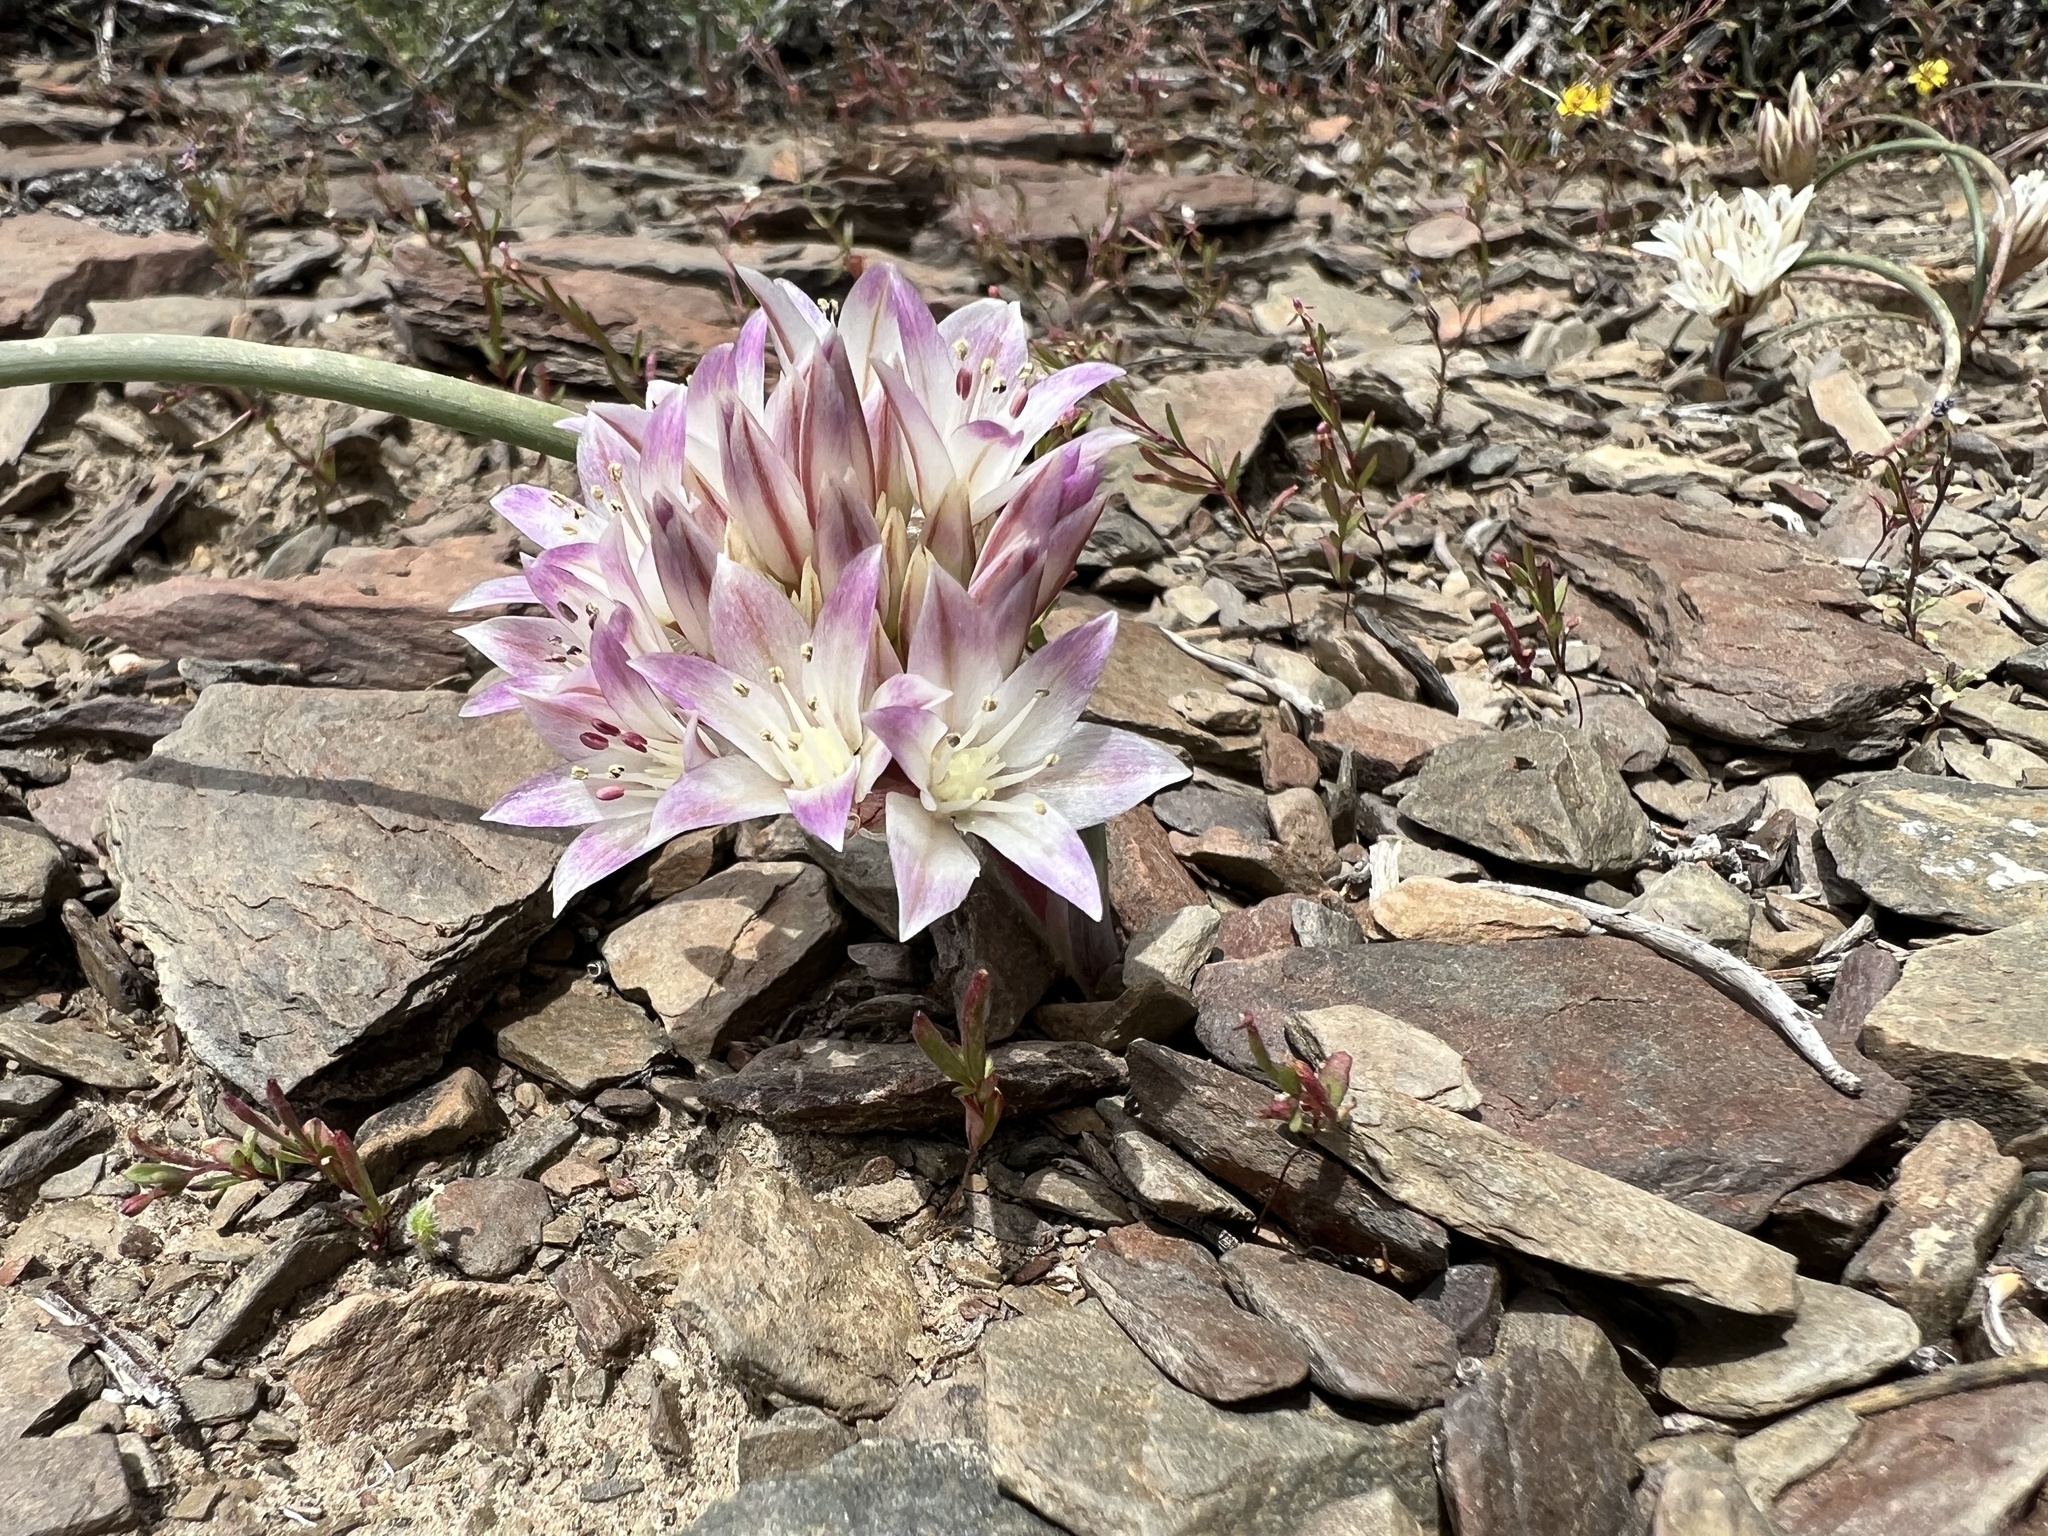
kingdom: Plantae
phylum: Tracheophyta
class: Liliopsida
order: Asparagales
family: Amaryllidaceae
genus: Allium
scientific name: Allium atrorubens
